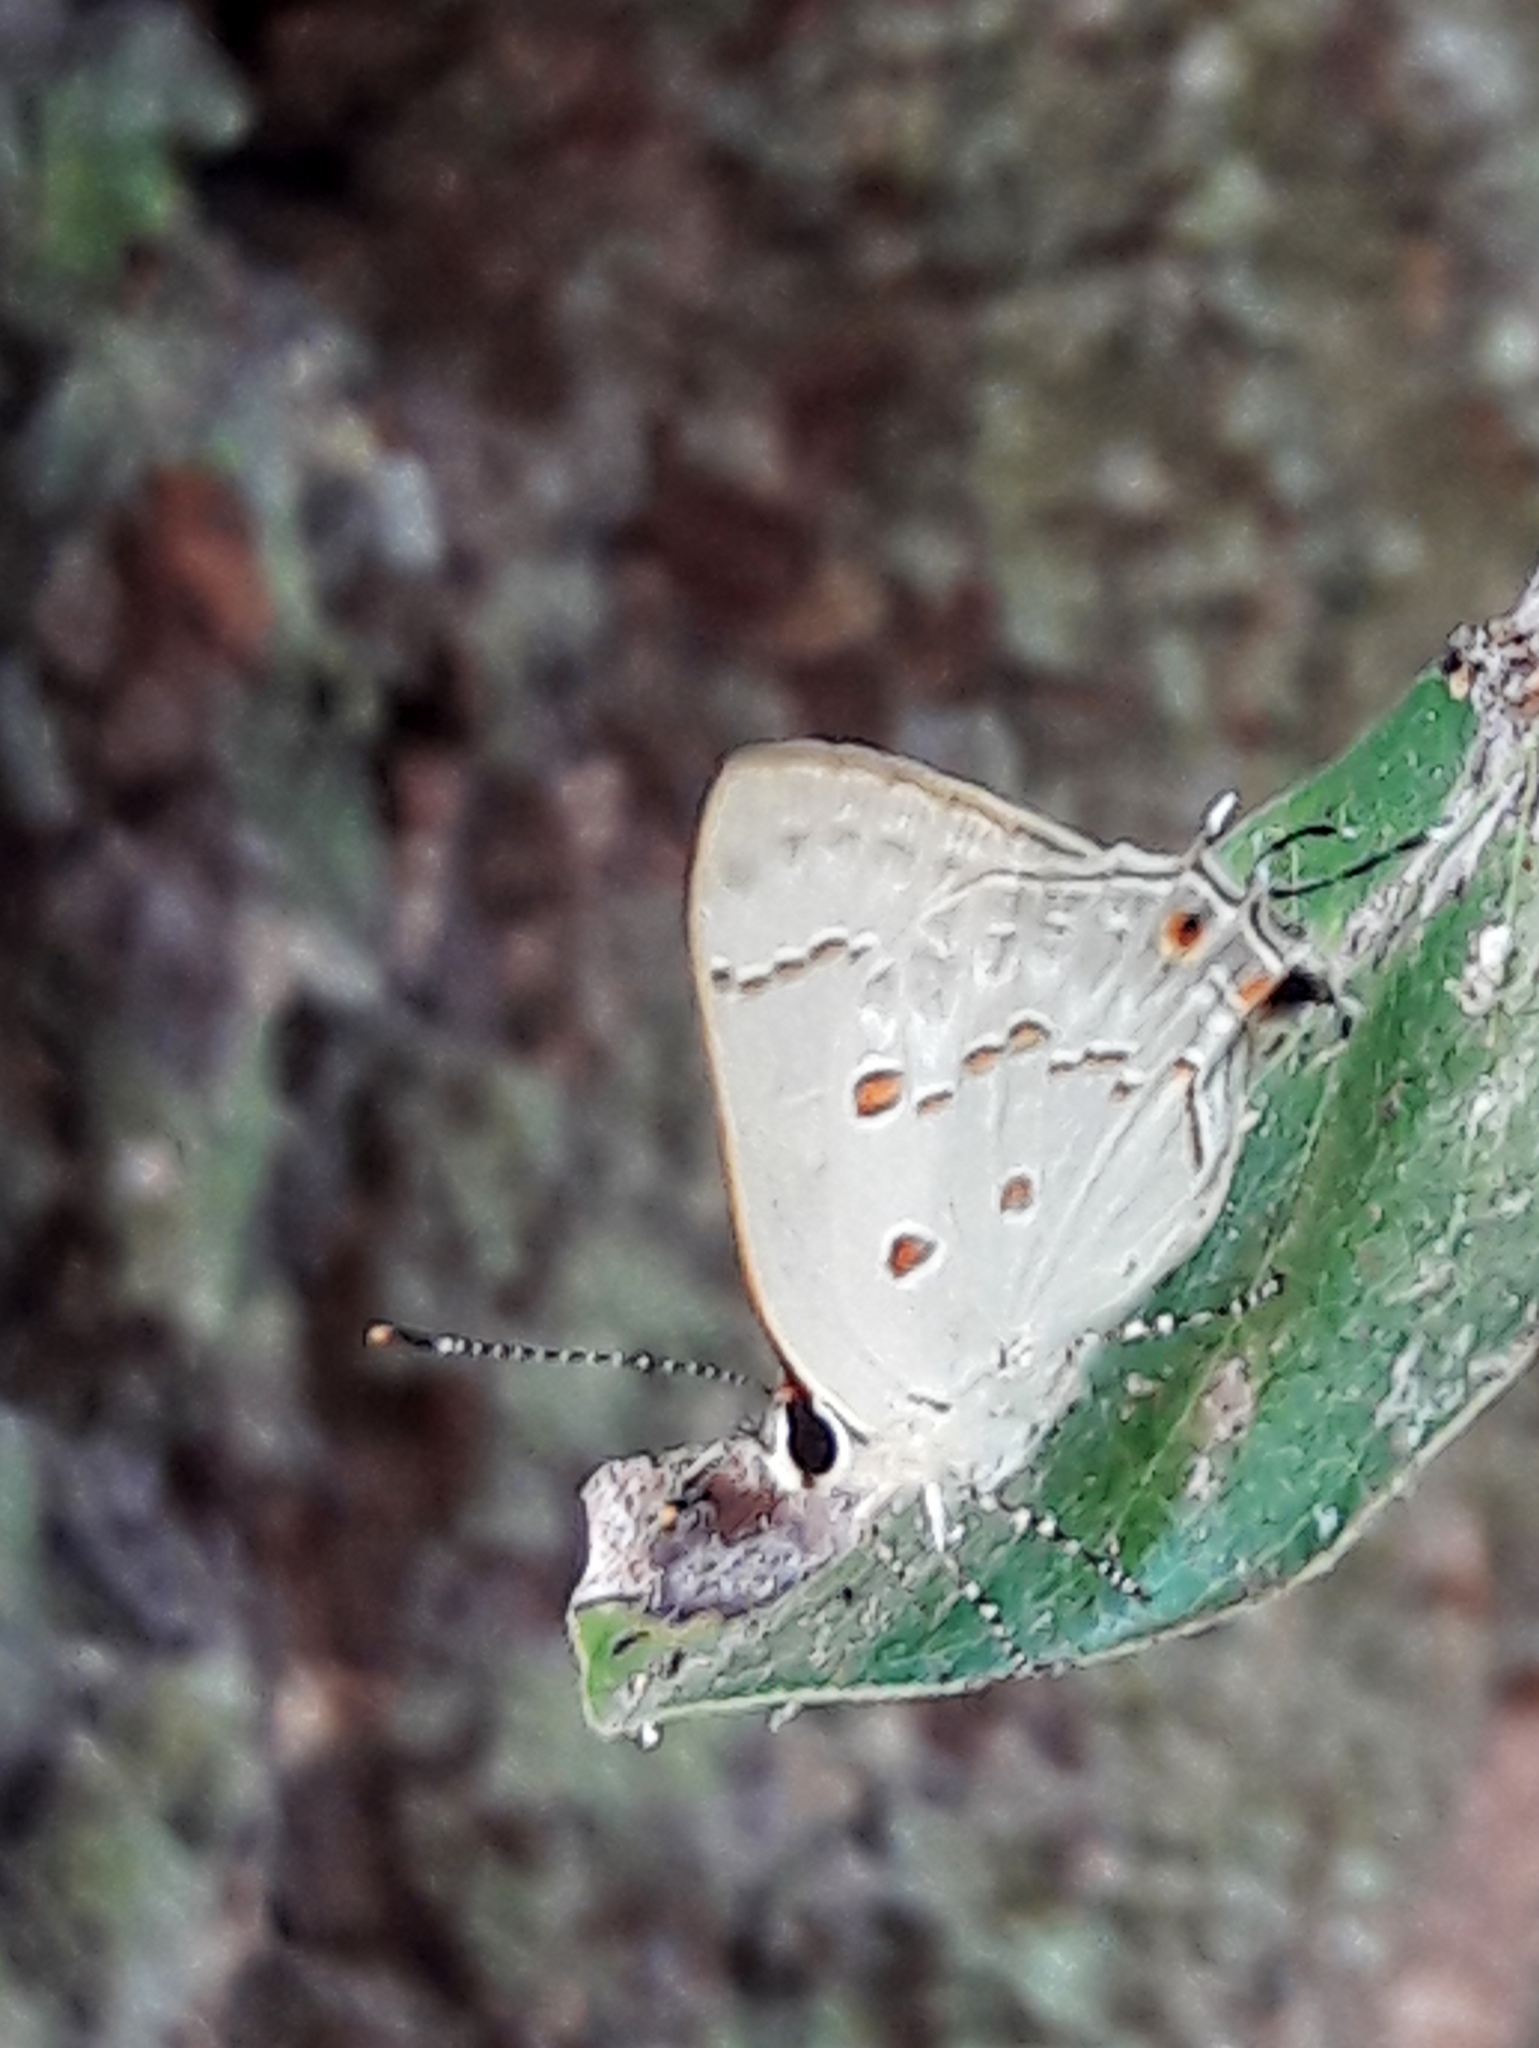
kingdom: Animalia
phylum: Arthropoda
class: Insecta
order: Lepidoptera
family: Lycaenidae
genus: Thecla
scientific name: Thecla ziba
